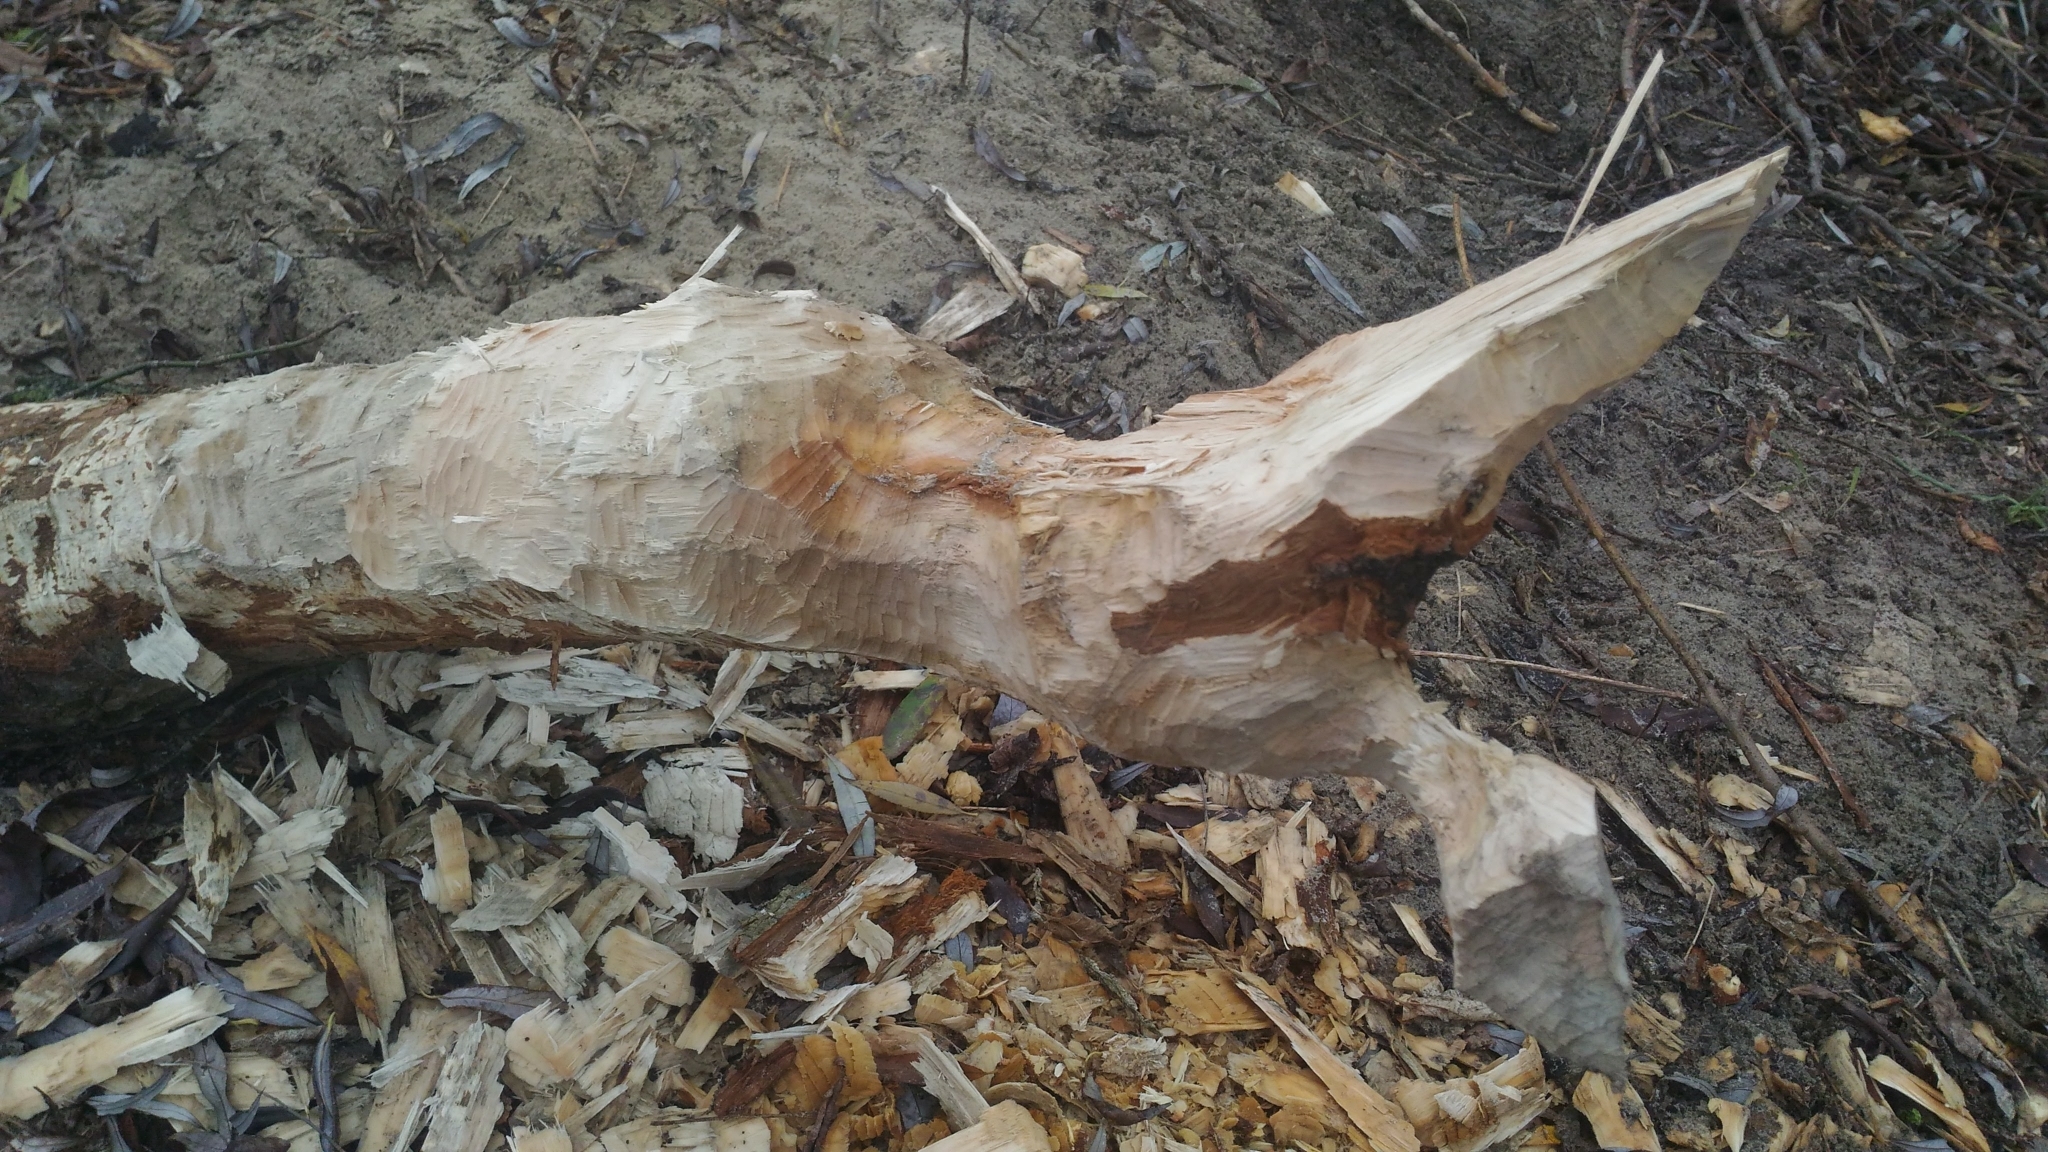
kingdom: Animalia
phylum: Chordata
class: Mammalia
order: Rodentia
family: Castoridae
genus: Castor
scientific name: Castor fiber
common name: Eurasian beaver
